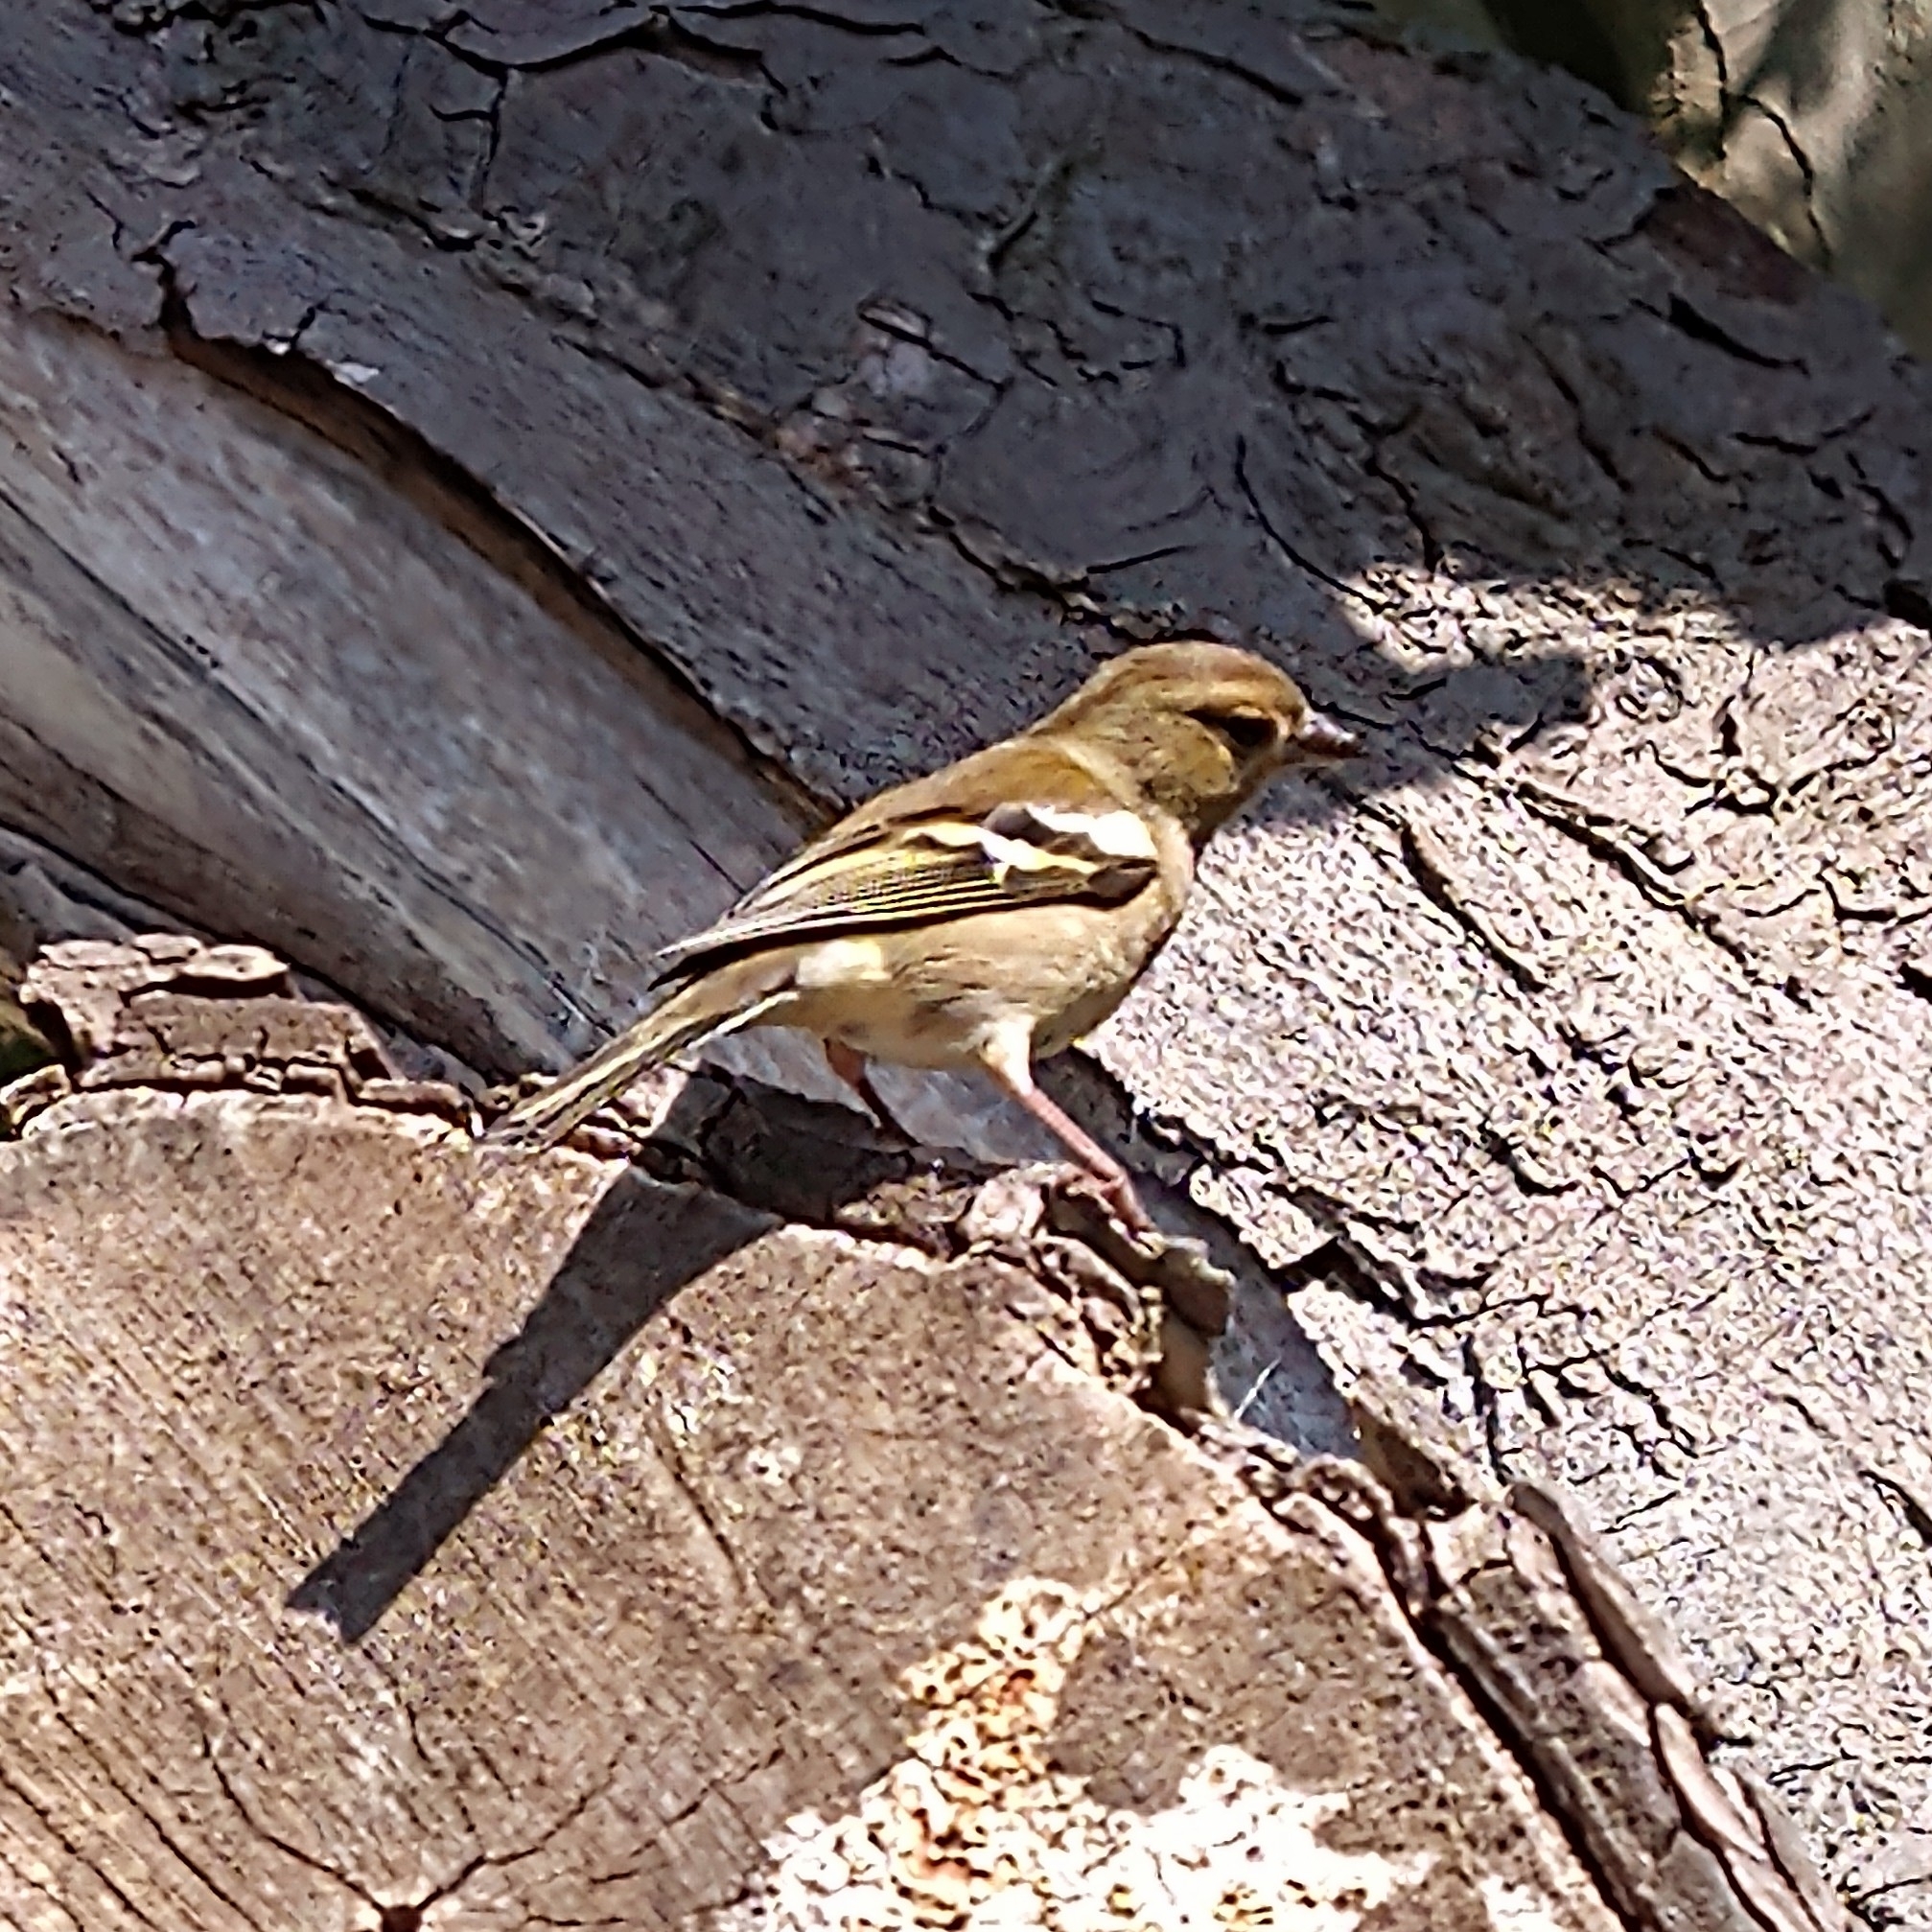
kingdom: Animalia
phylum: Chordata
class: Aves
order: Passeriformes
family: Fringillidae
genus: Fringilla
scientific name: Fringilla coelebs
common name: Common chaffinch
